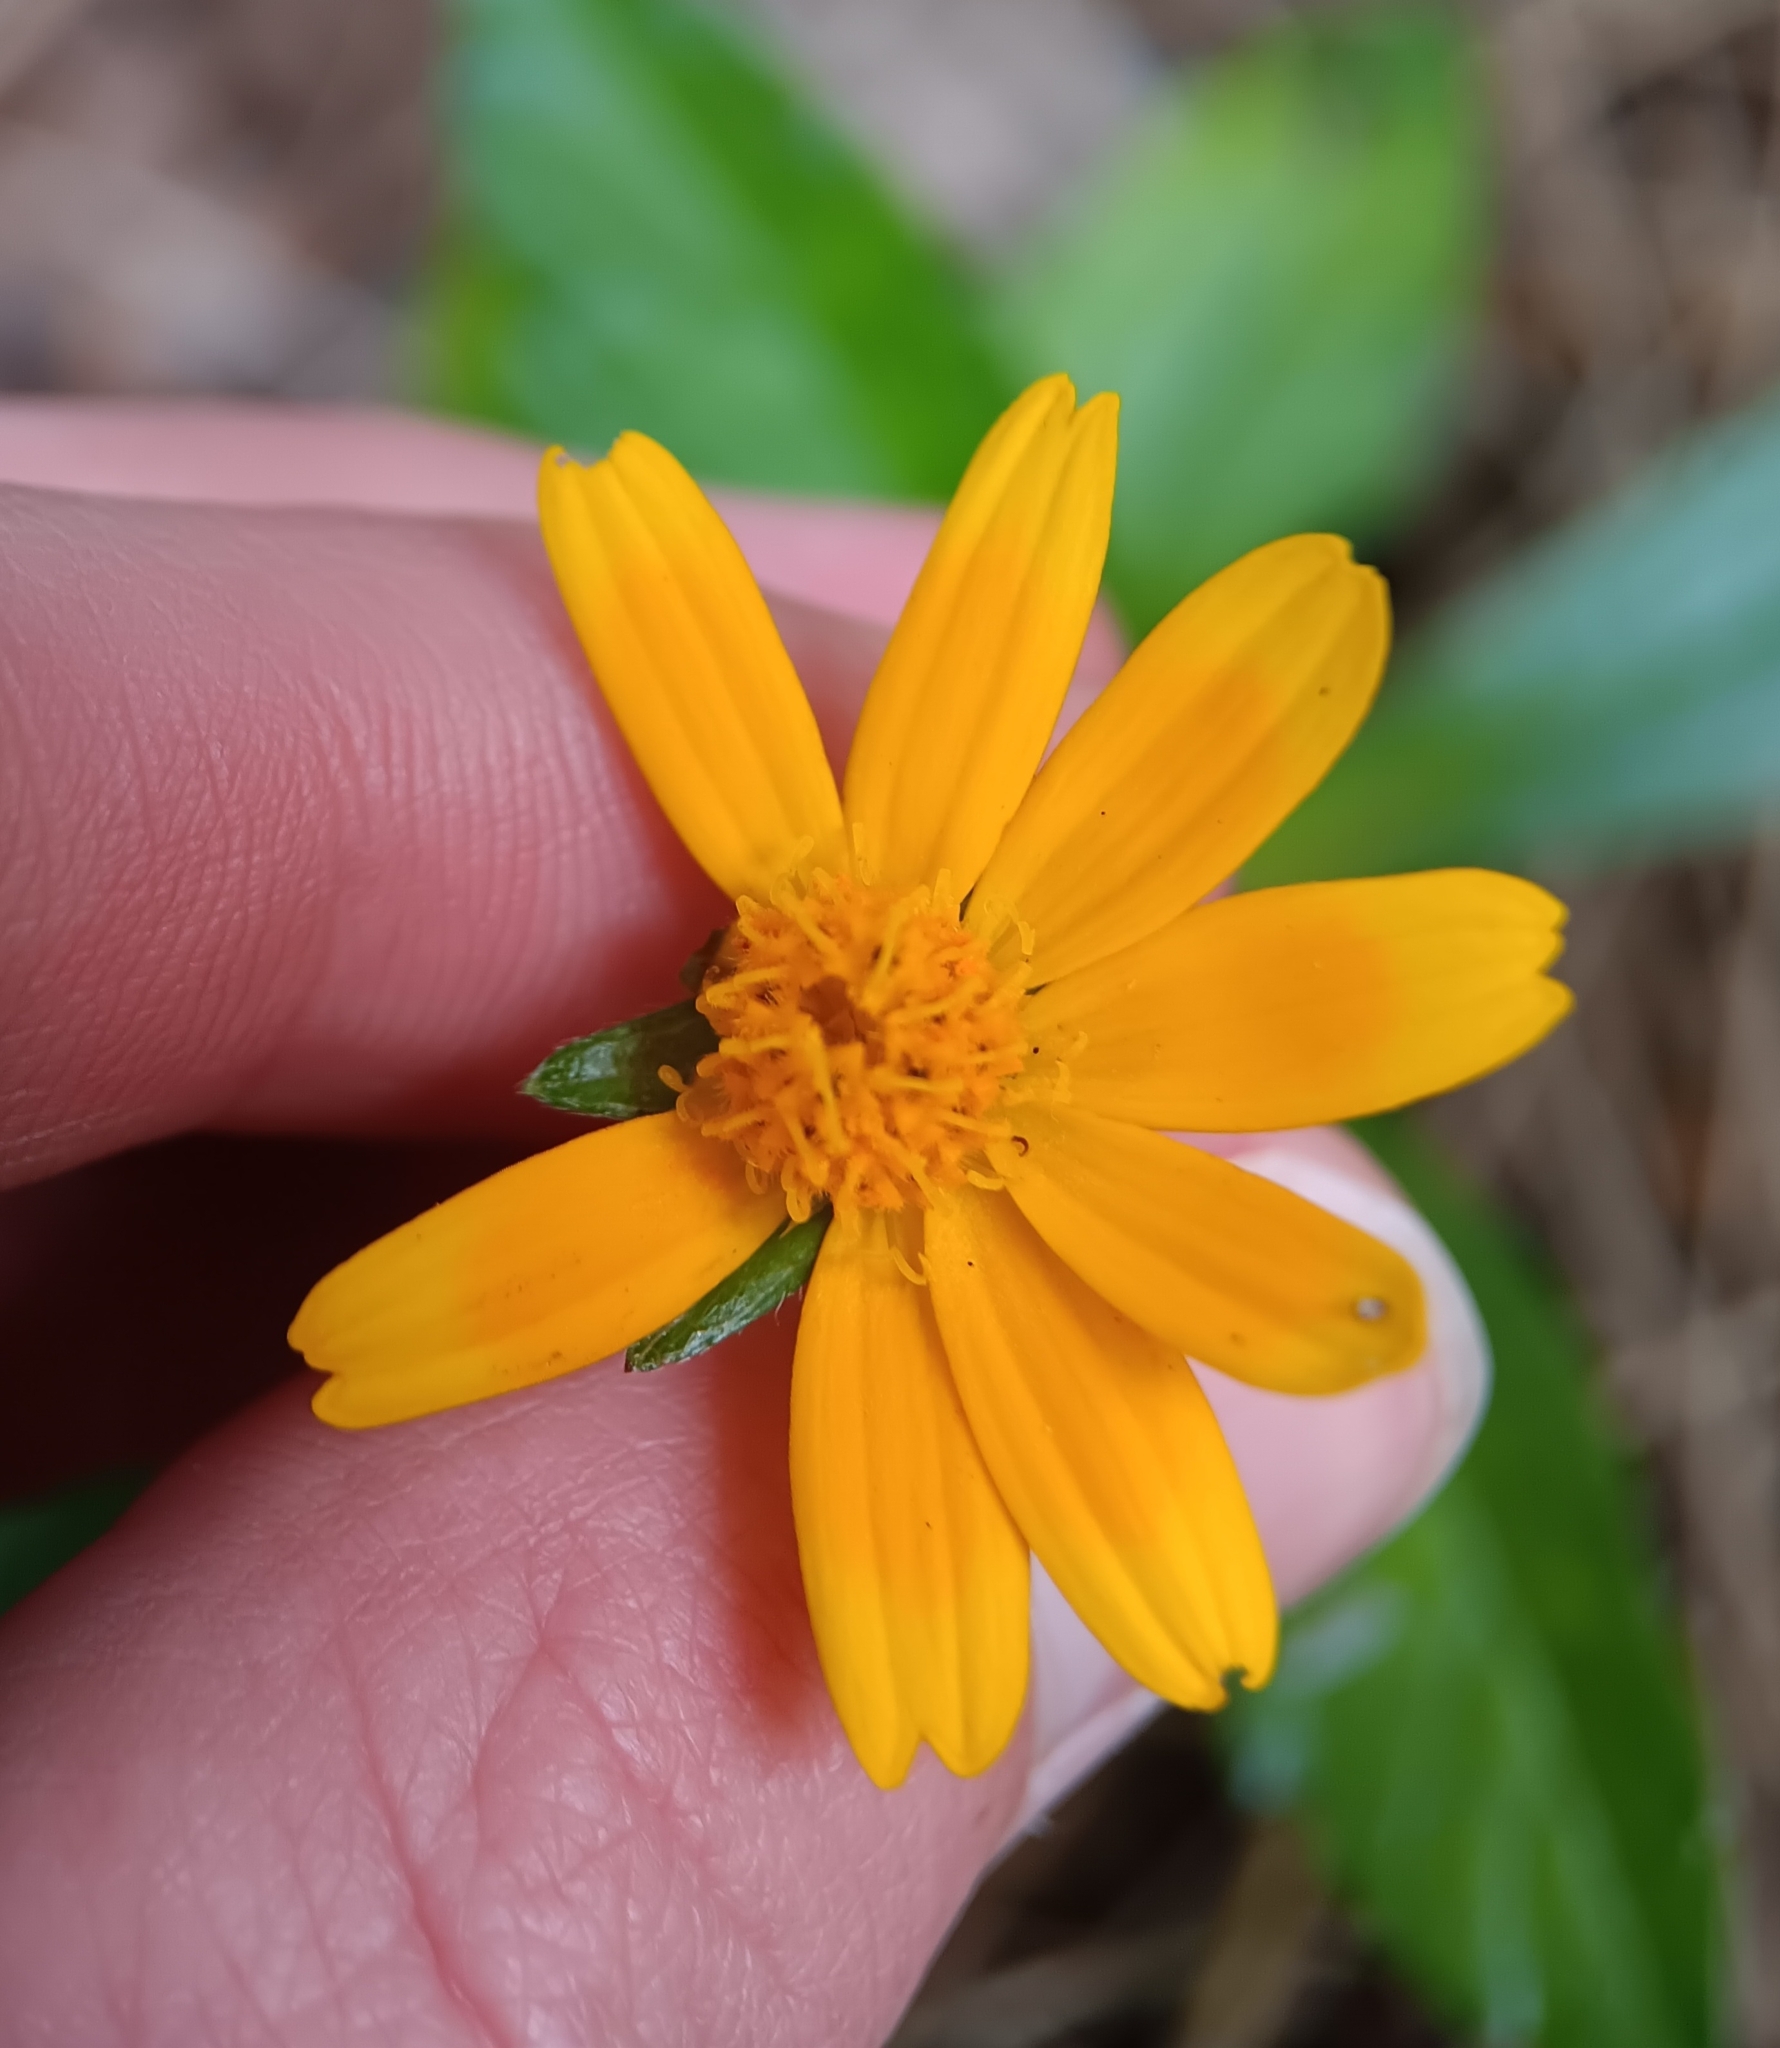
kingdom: Plantae
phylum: Tracheophyta
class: Magnoliopsida
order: Asterales
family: Asteraceae
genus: Sphagneticola
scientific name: Sphagneticola trilobata
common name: Bay biscayne creeping-oxeye
